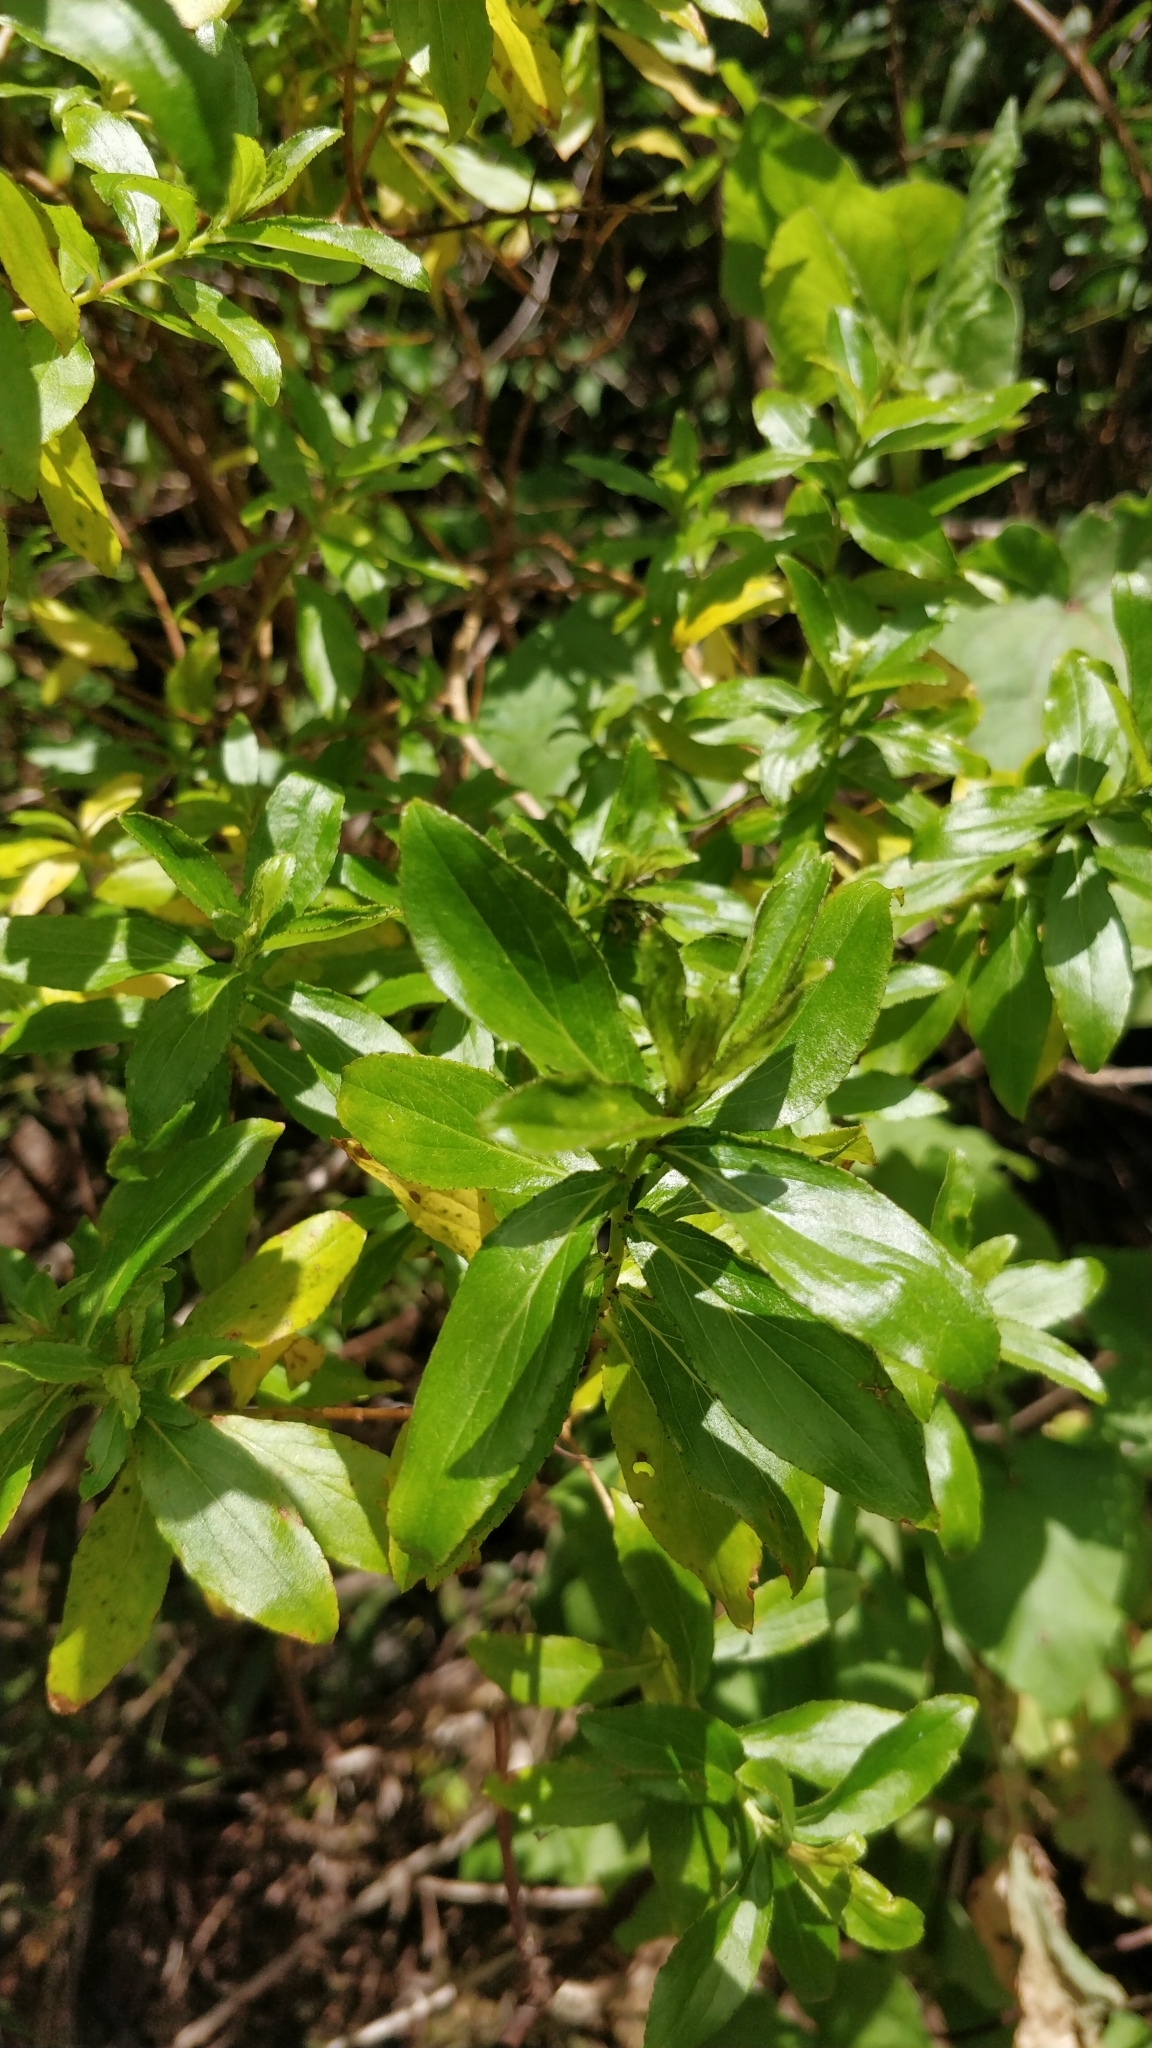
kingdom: Plantae
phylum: Tracheophyta
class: Magnoliopsida
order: Malpighiales
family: Hypericaceae
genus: Hypericum
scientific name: Hypericum glandulosum
